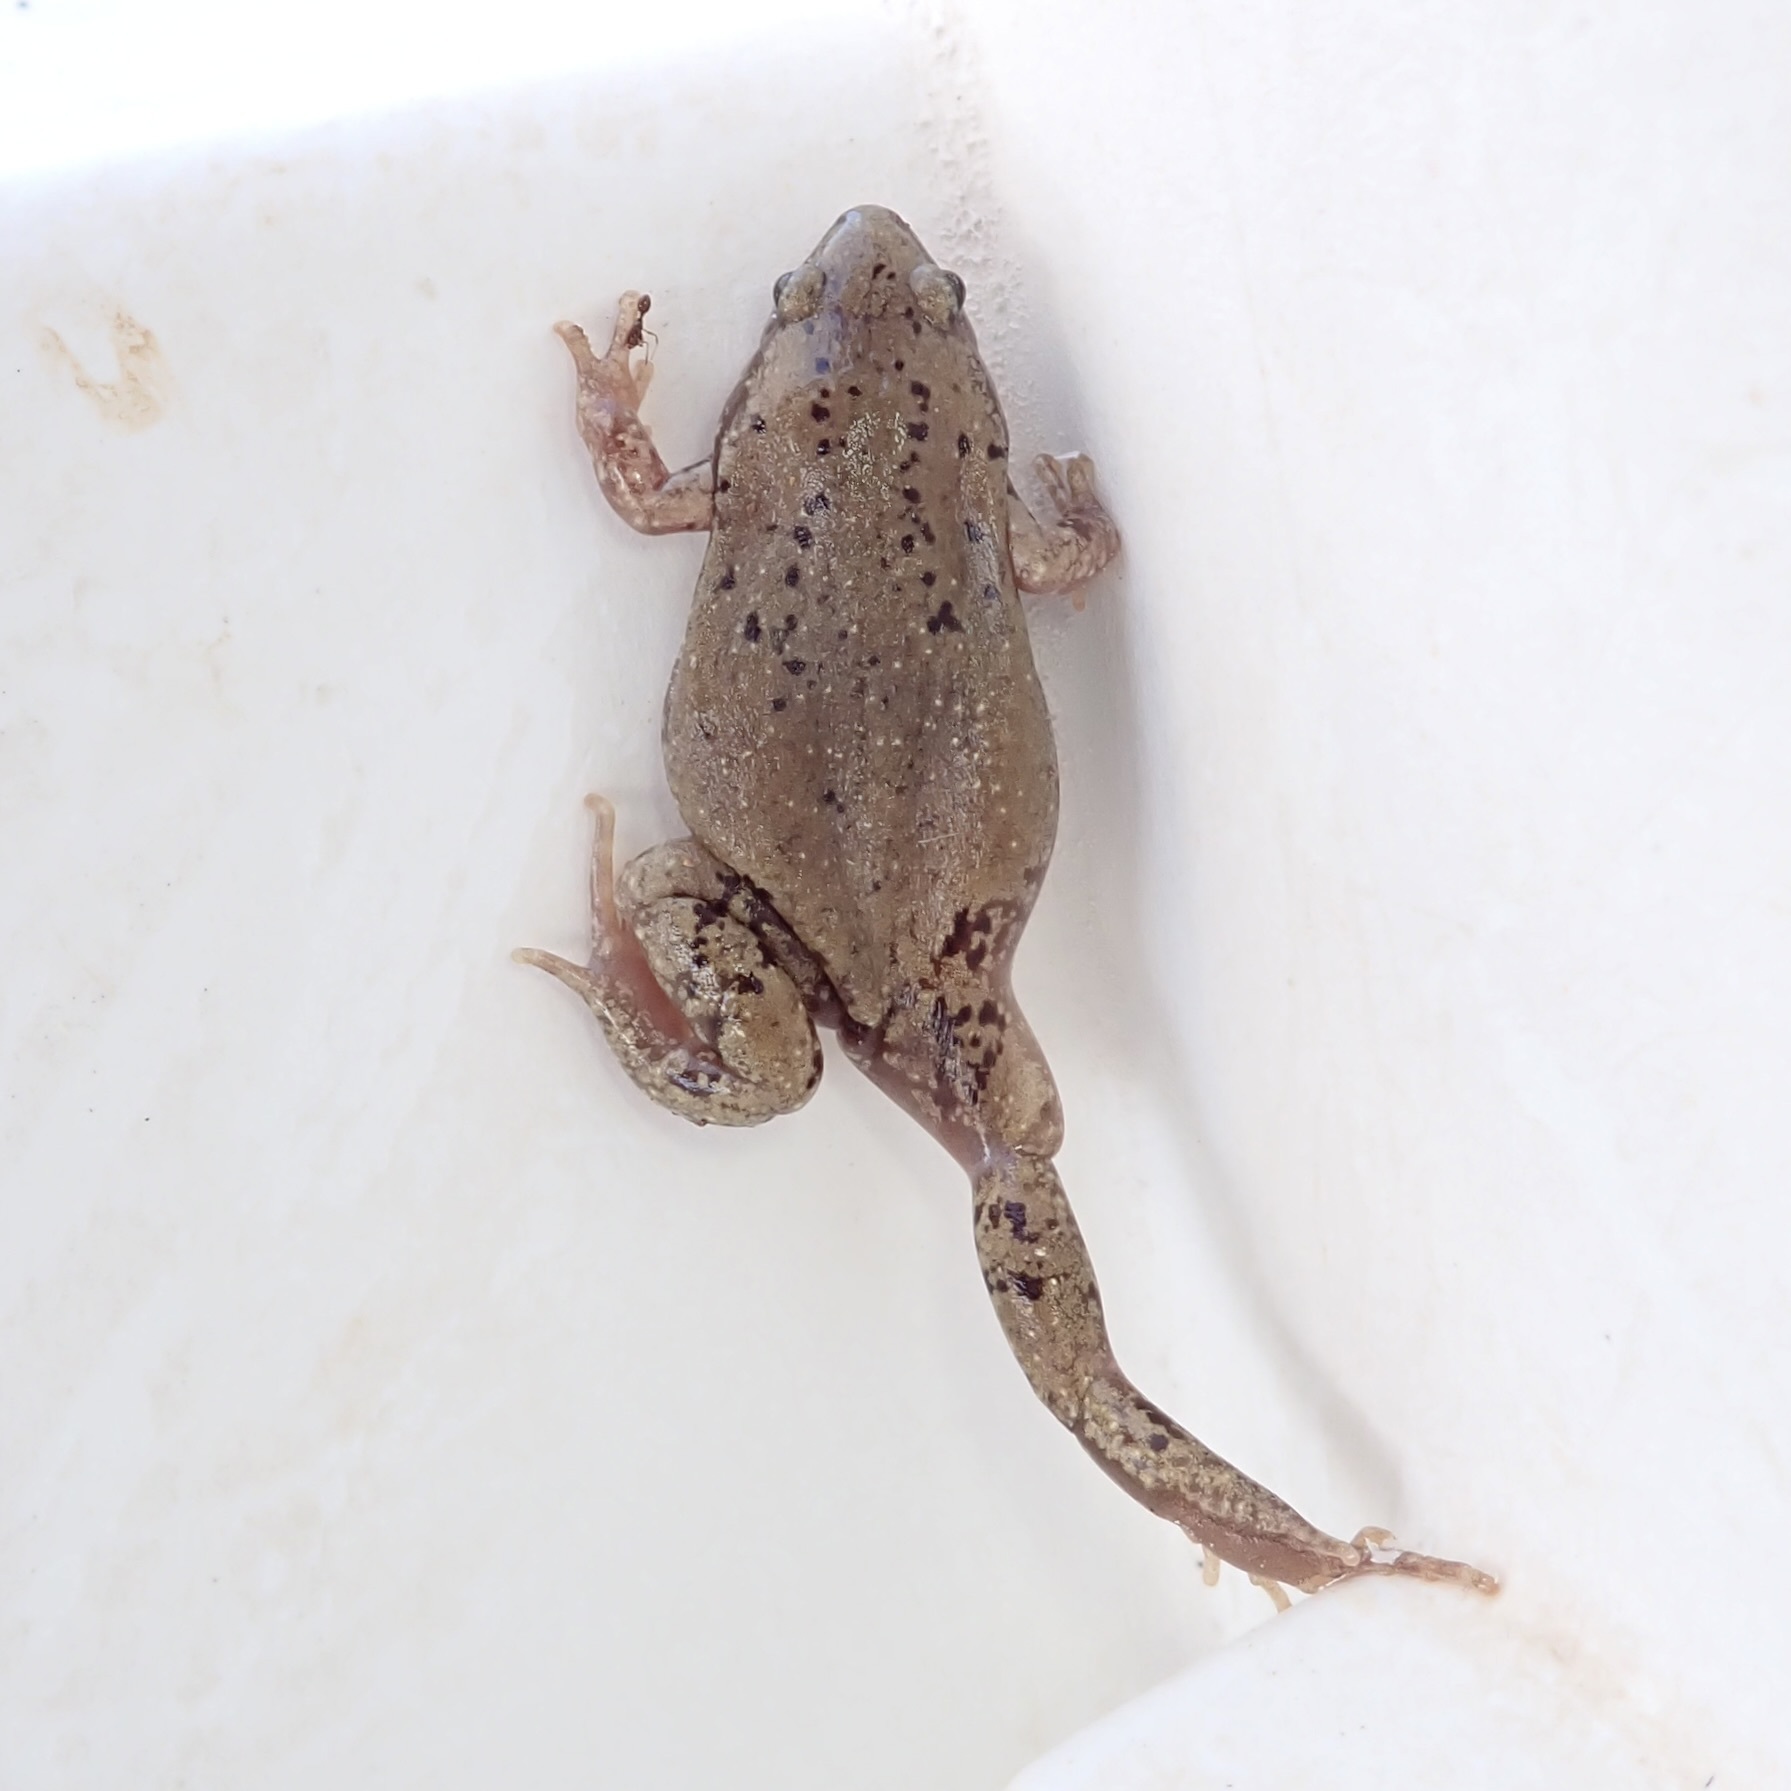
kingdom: Animalia
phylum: Chordata
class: Amphibia
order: Anura
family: Microhylidae
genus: Gastrophryne
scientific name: Gastrophryne mazatlanensis
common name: Sinaloan narrow-mouthed toad
